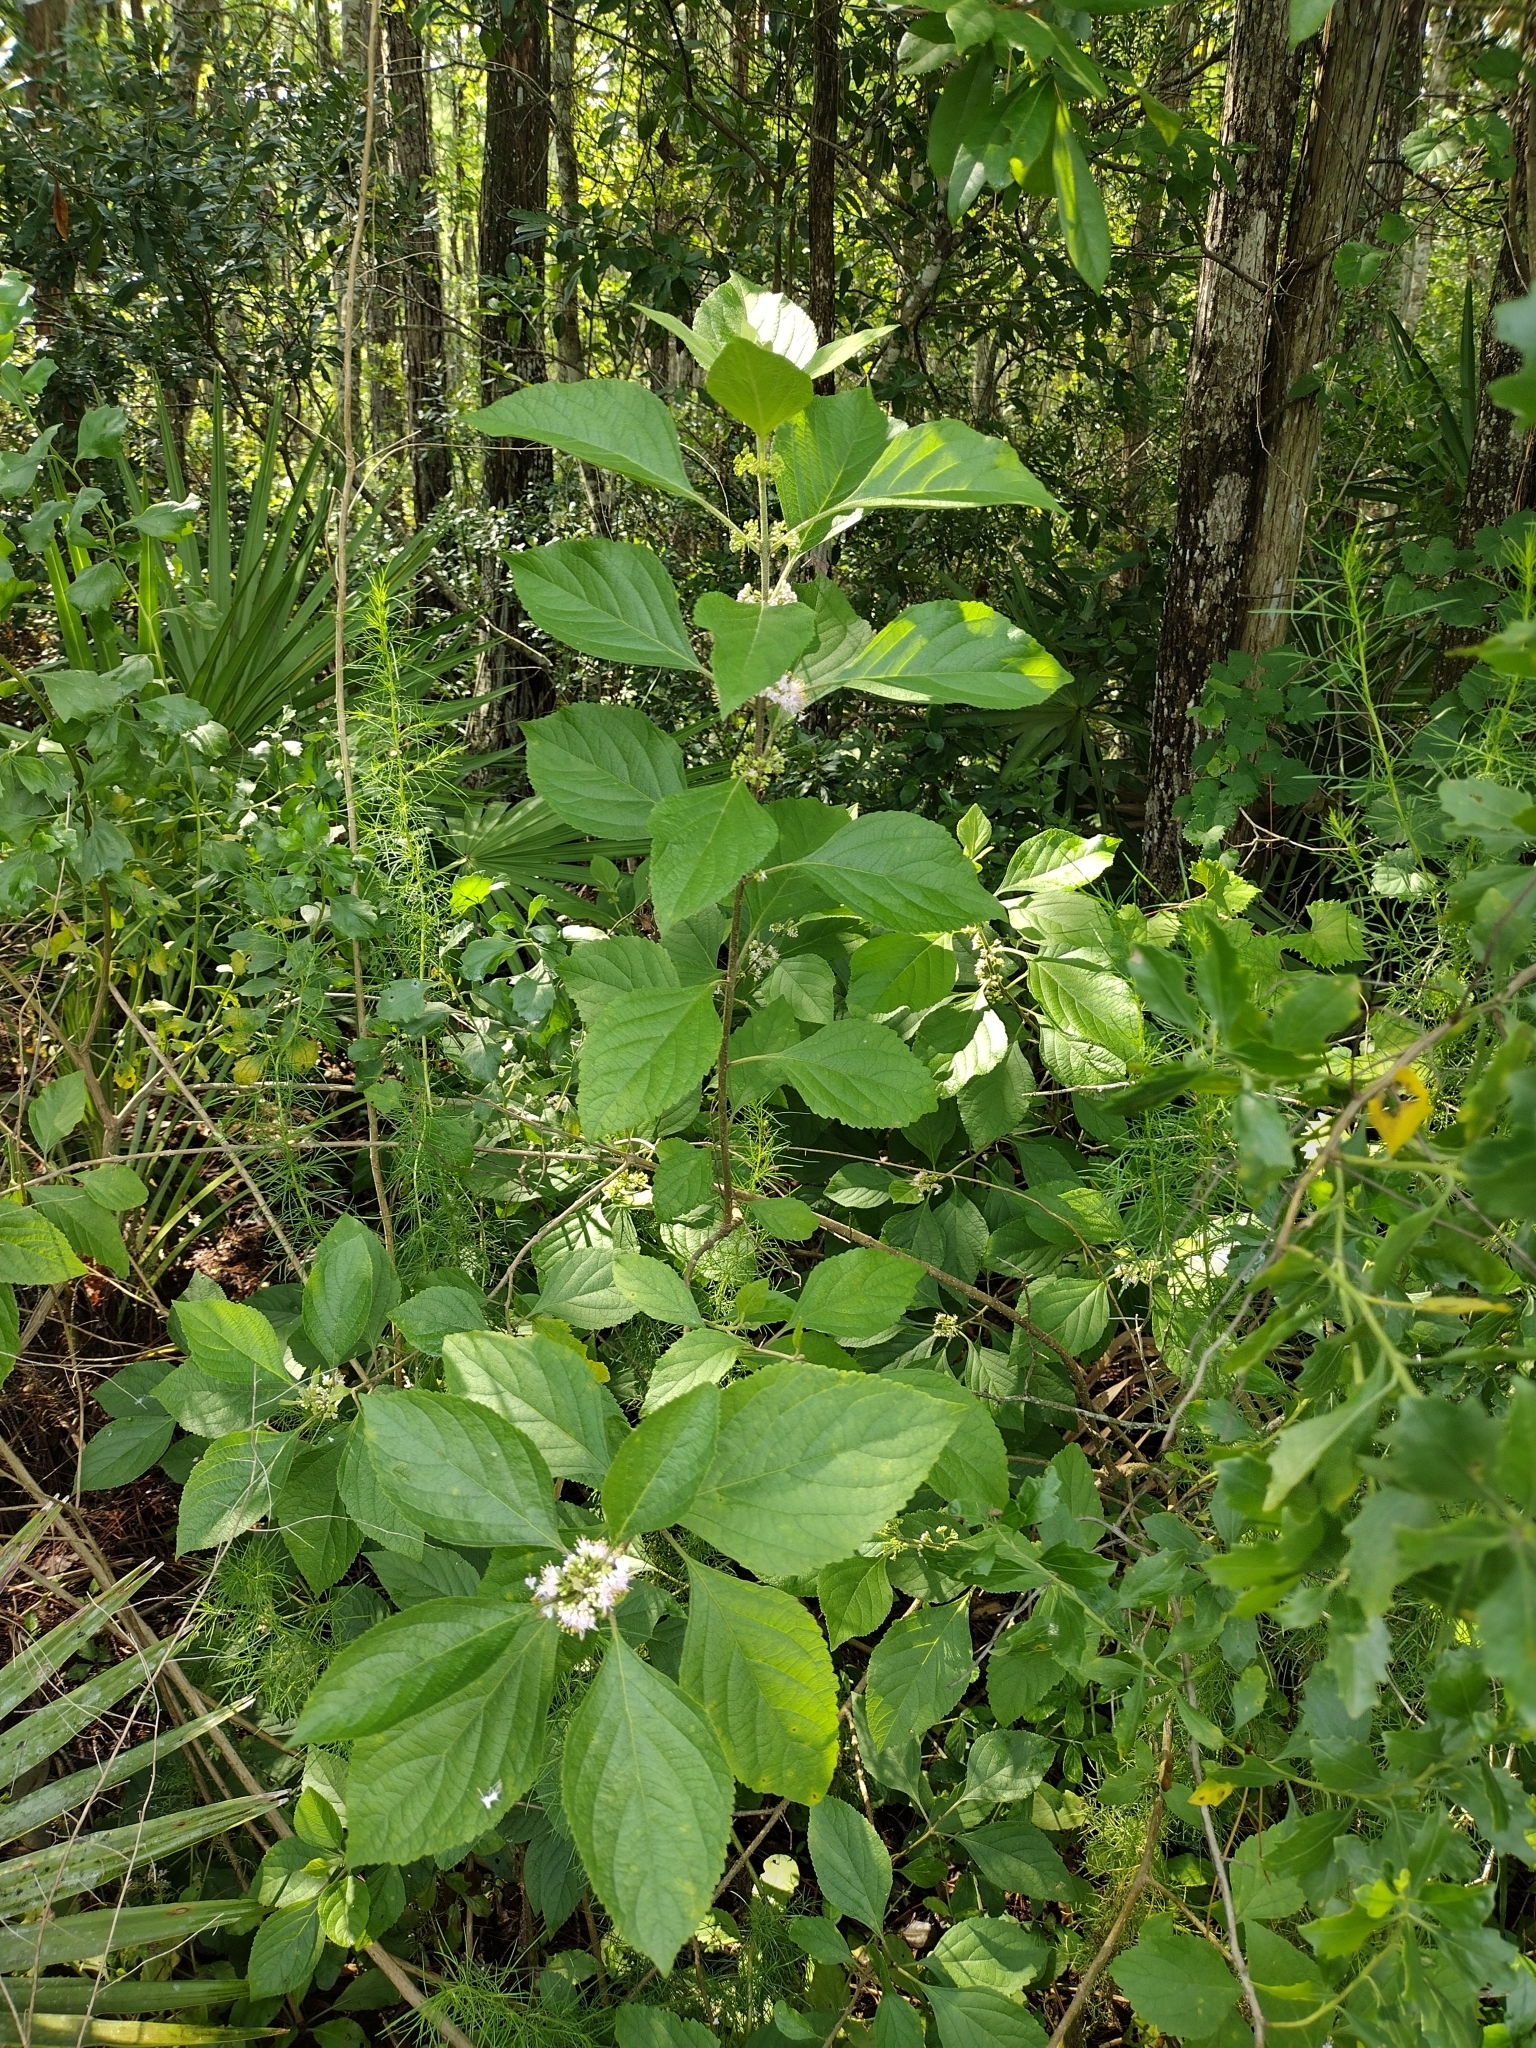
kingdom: Plantae
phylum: Tracheophyta
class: Magnoliopsida
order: Lamiales
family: Lamiaceae
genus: Callicarpa
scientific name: Callicarpa americana
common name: American beautyberry
